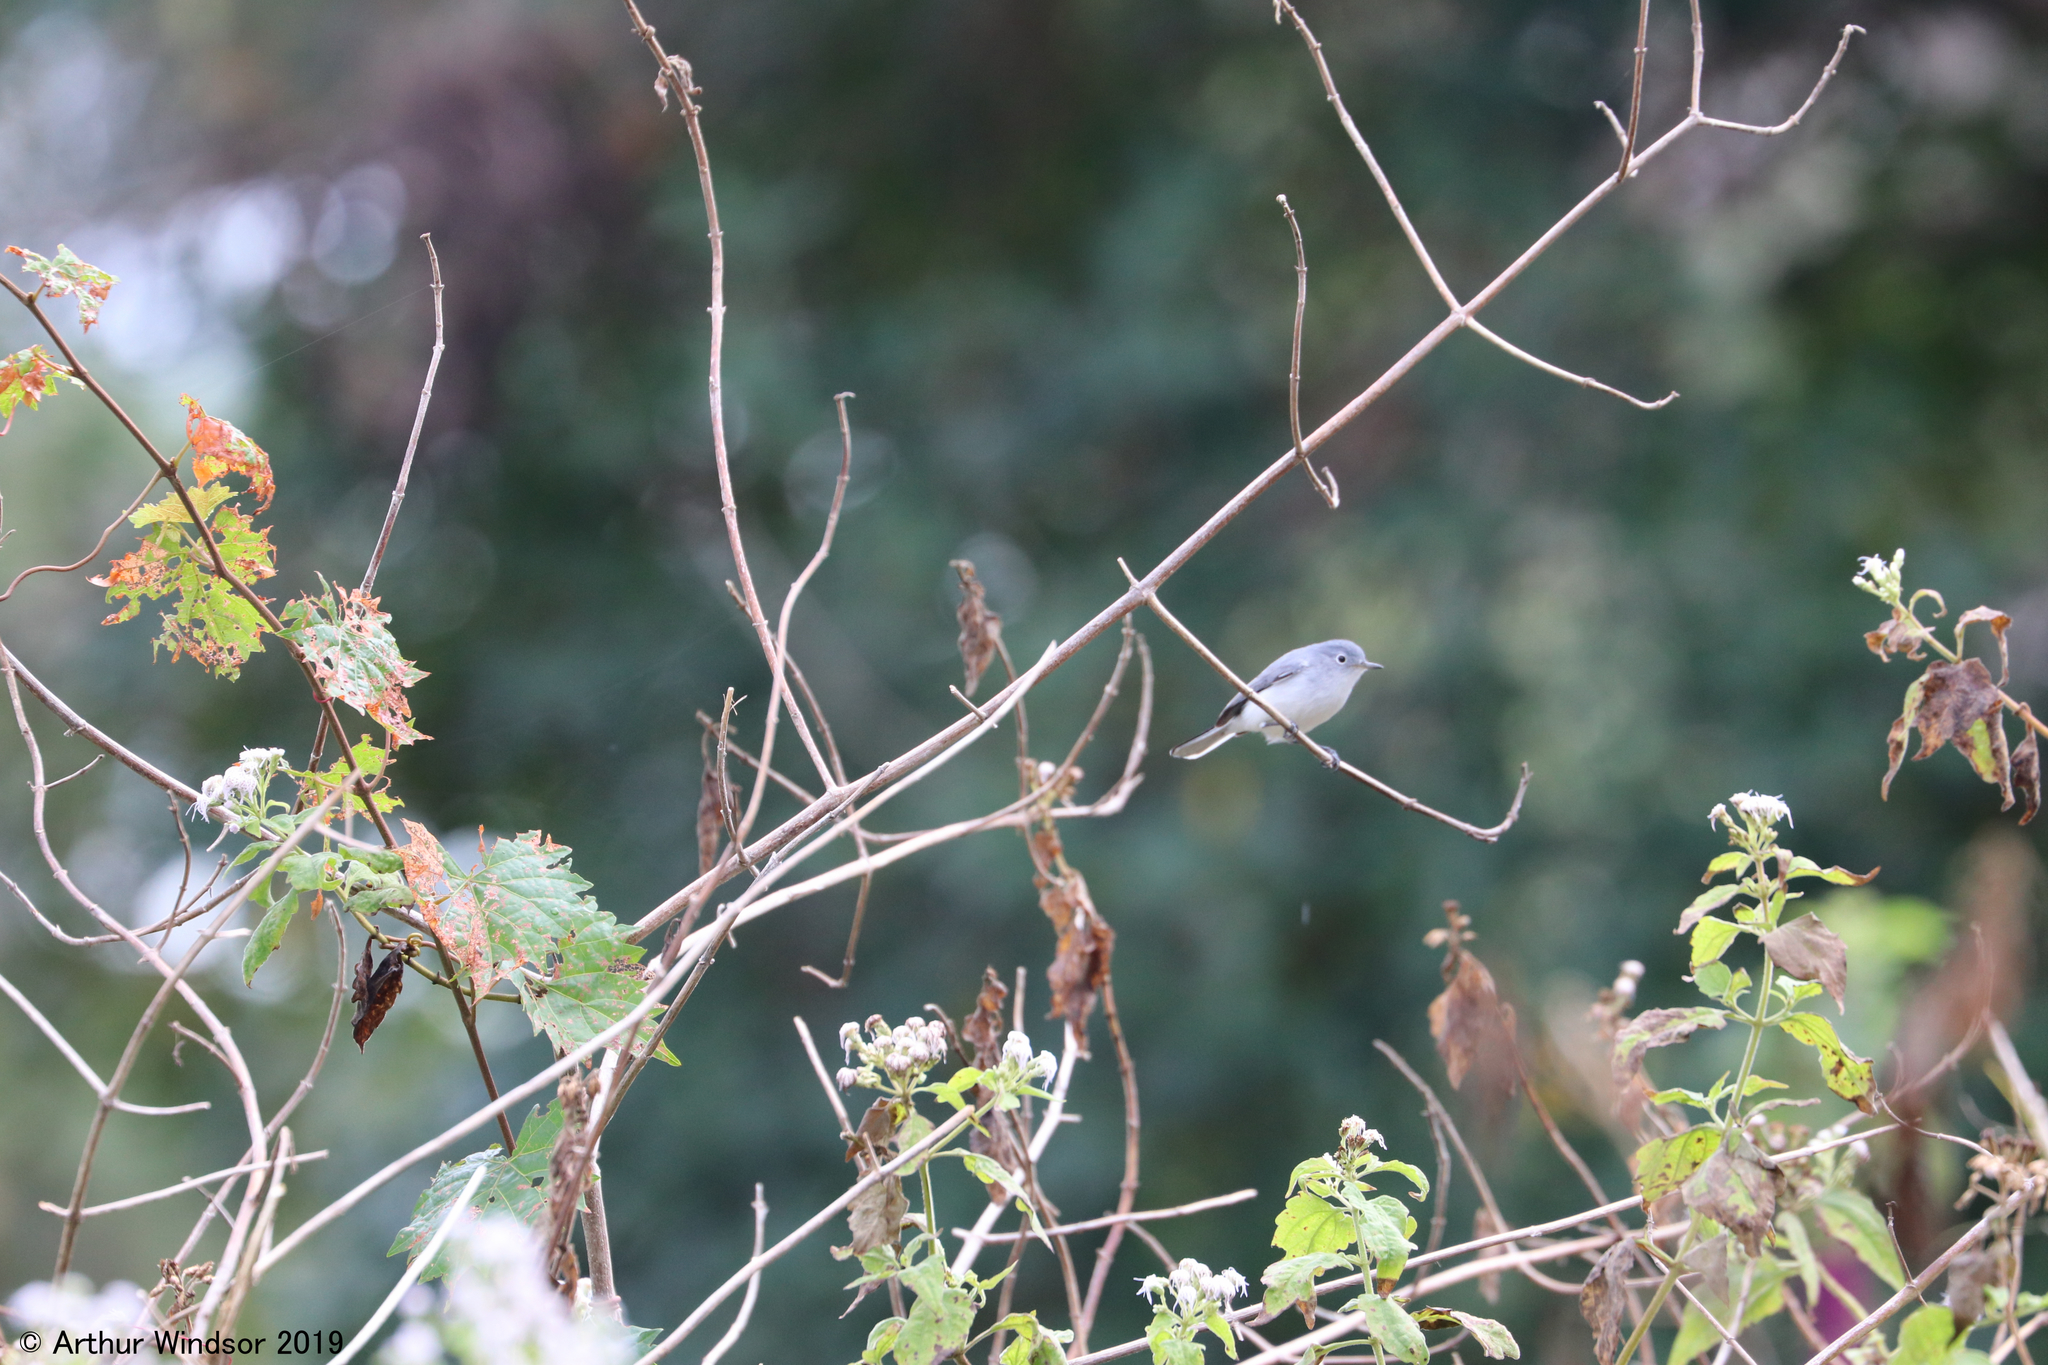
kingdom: Animalia
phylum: Chordata
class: Aves
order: Passeriformes
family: Polioptilidae
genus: Polioptila
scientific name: Polioptila caerulea
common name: Blue-gray gnatcatcher
